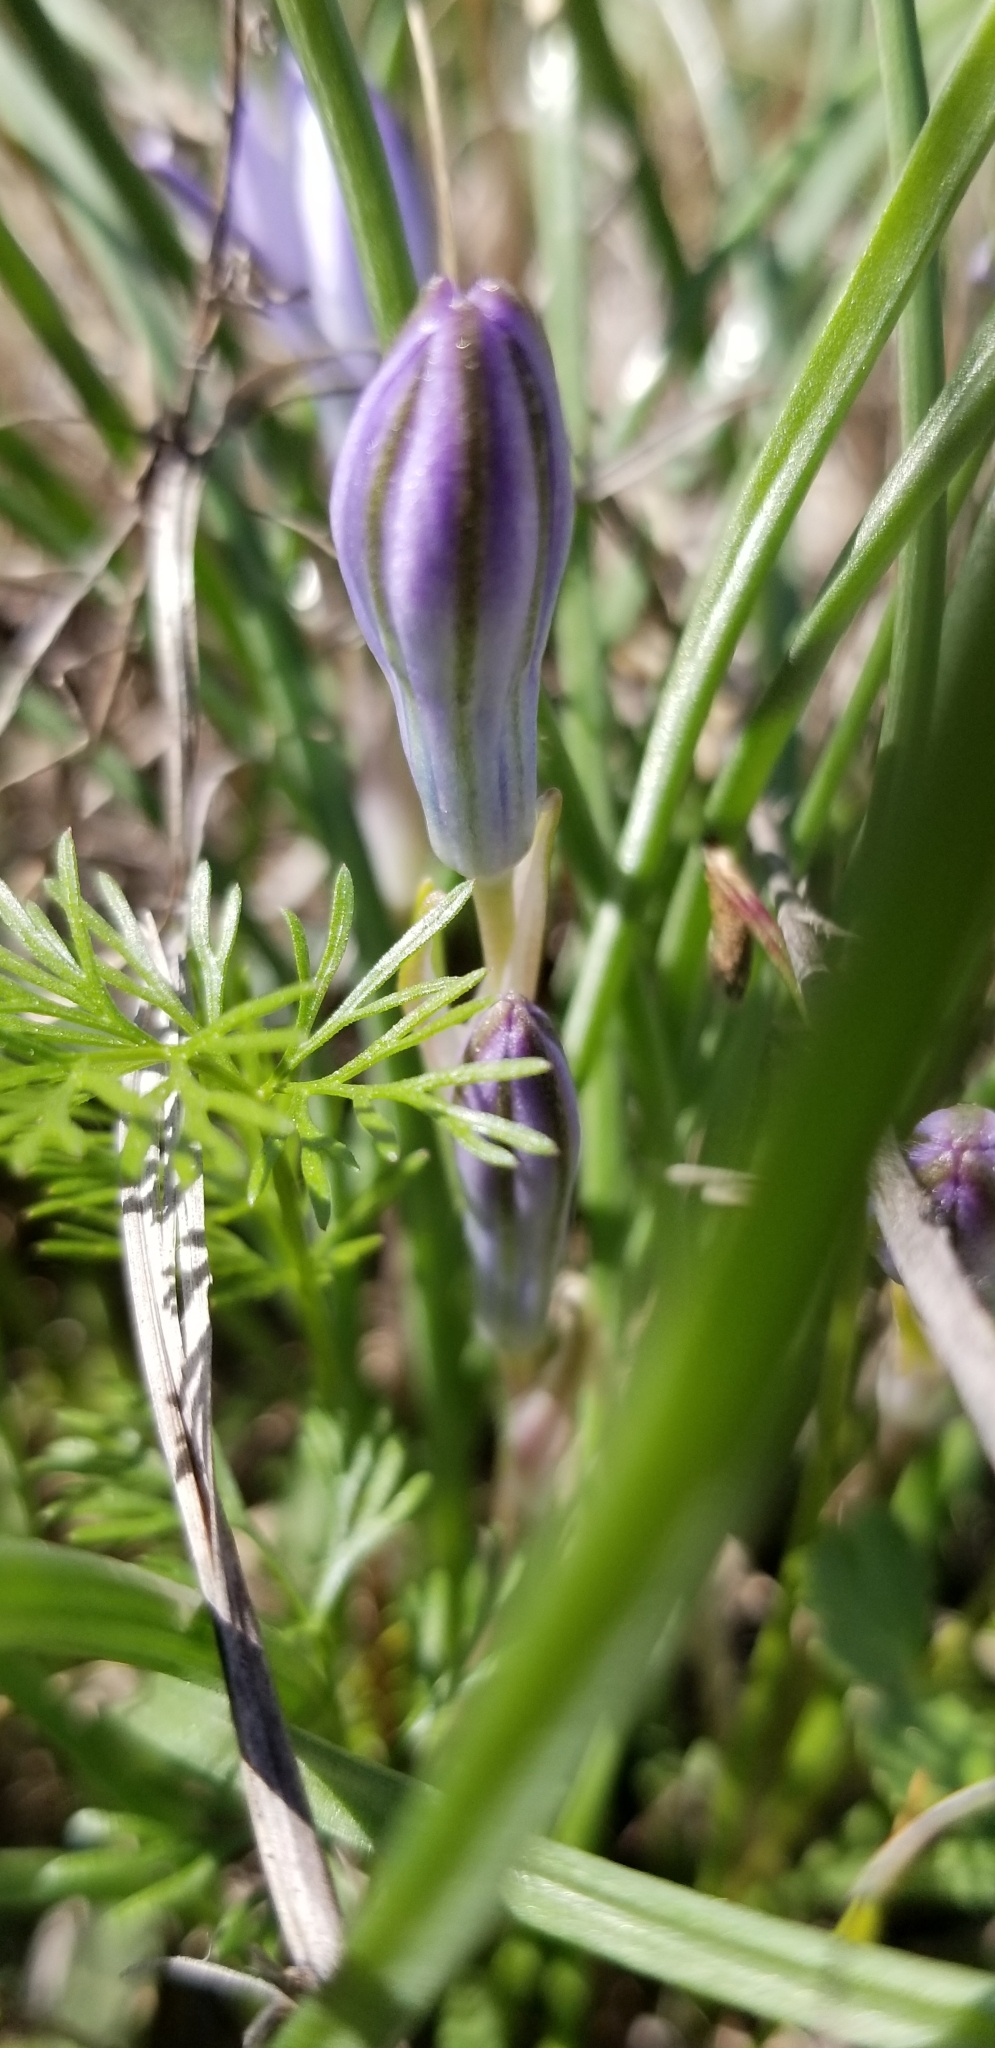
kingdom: Plantae
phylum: Tracheophyta
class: Liliopsida
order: Asparagales
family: Asparagaceae
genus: Androstephium
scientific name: Androstephium coeruleum
